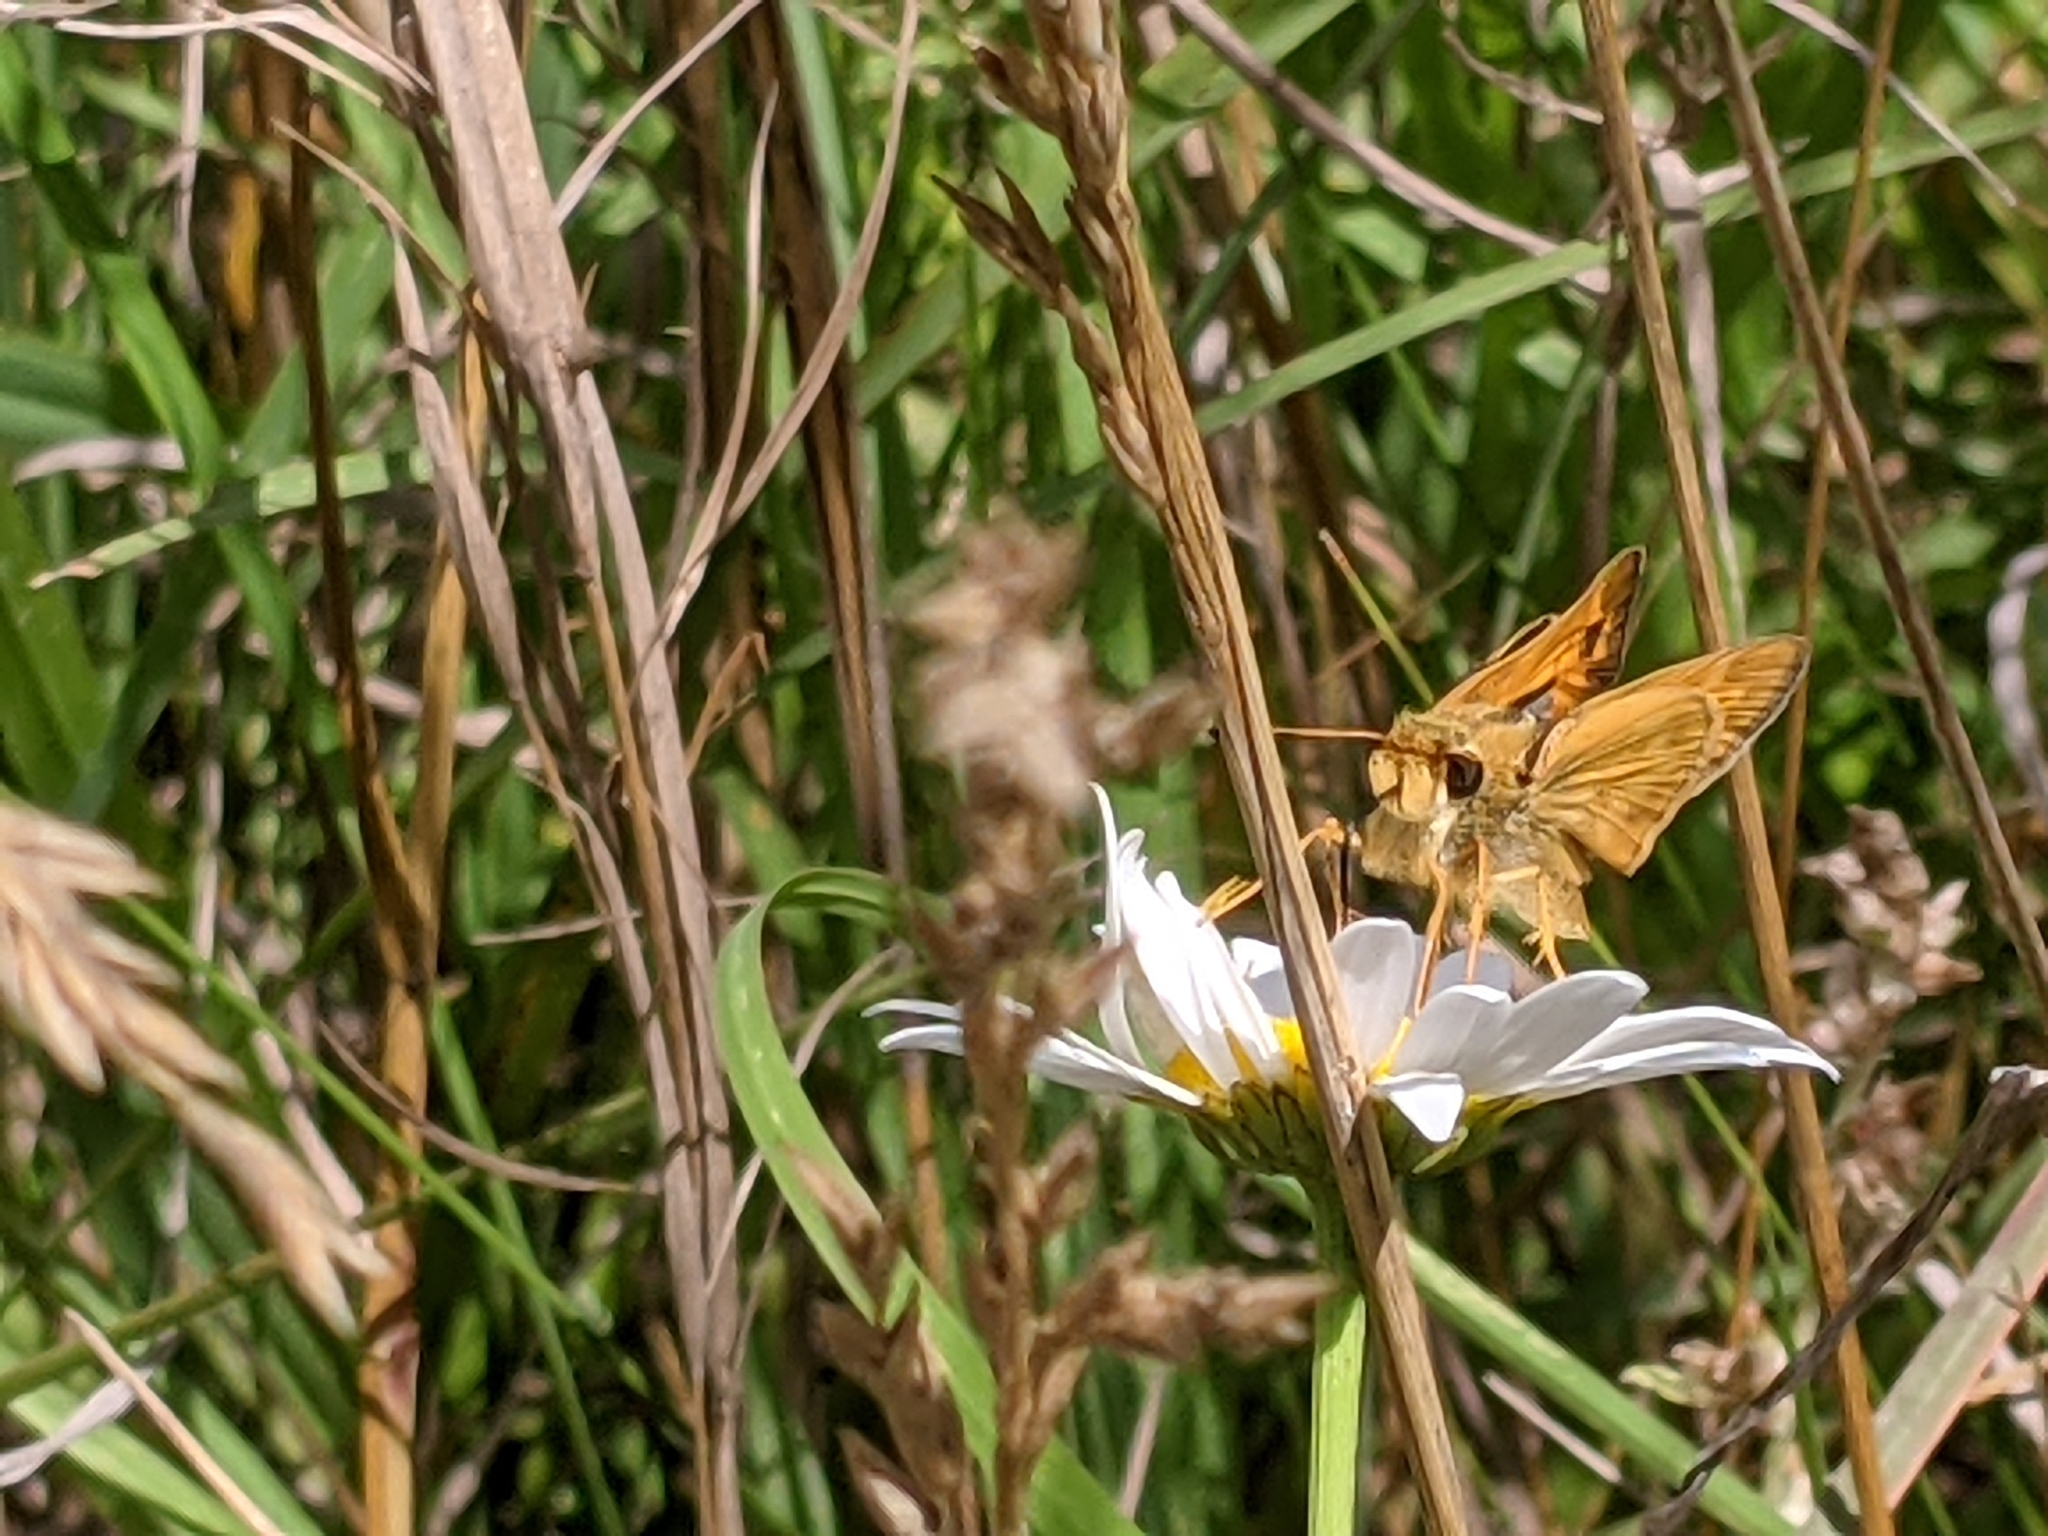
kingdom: Animalia
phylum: Arthropoda
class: Insecta
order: Lepidoptera
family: Hesperiidae
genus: Atalopedes
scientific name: Atalopedes
